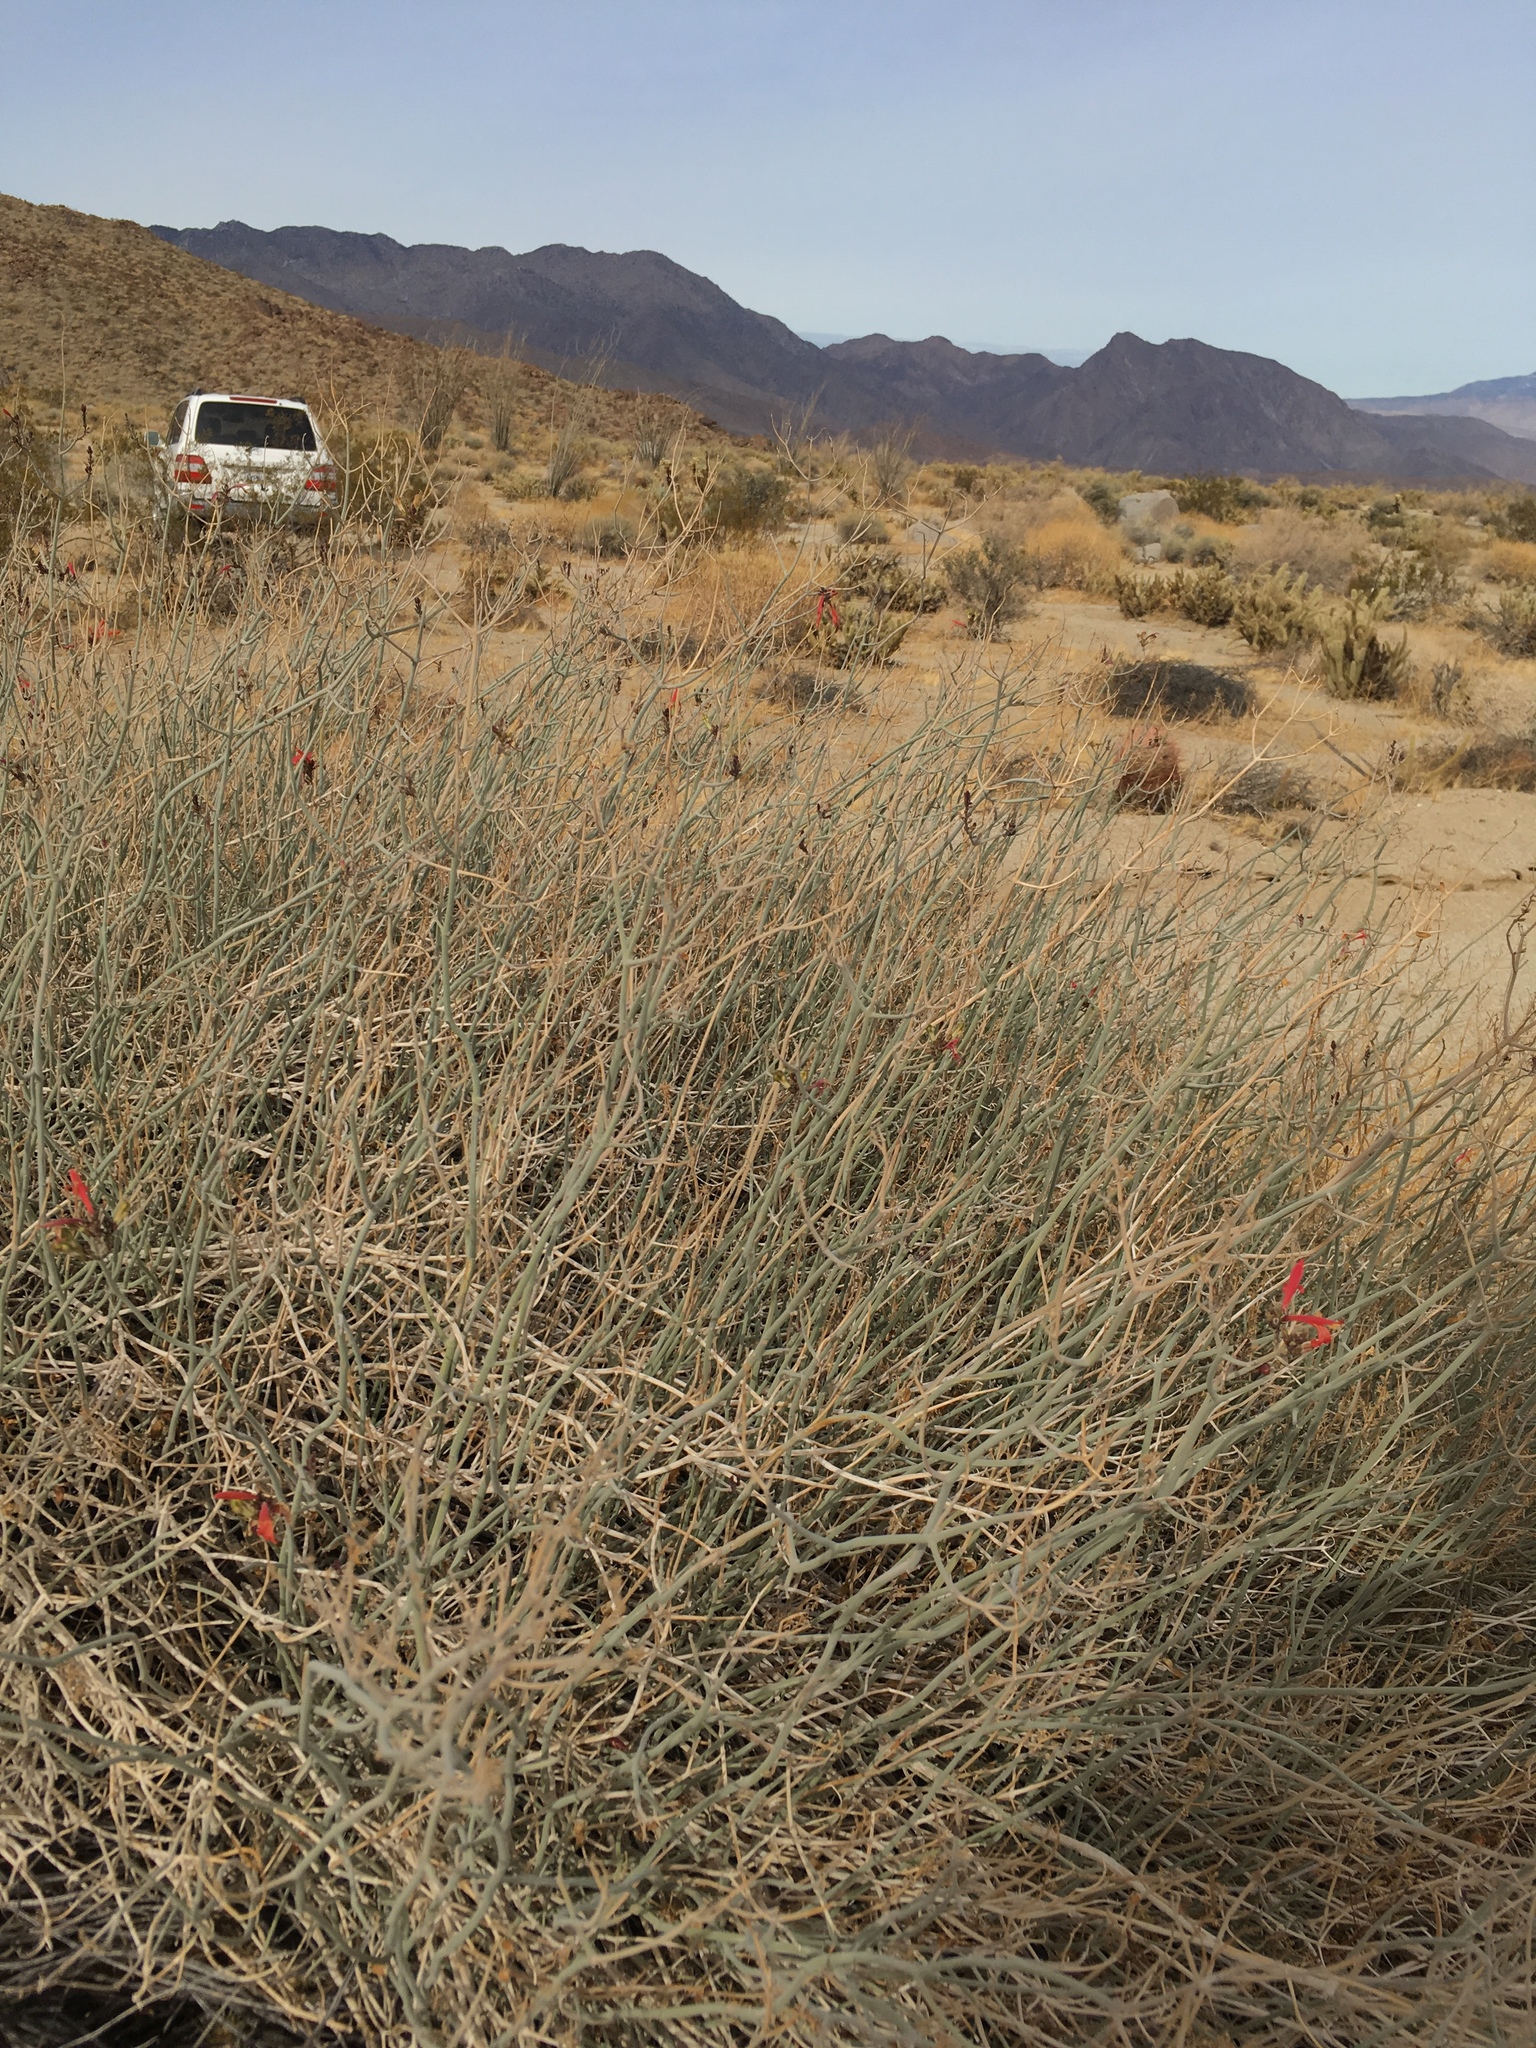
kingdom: Plantae
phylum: Tracheophyta
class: Magnoliopsida
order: Lamiales
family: Acanthaceae
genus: Justicia
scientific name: Justicia californica
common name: Chuparosa-honeysuckle
